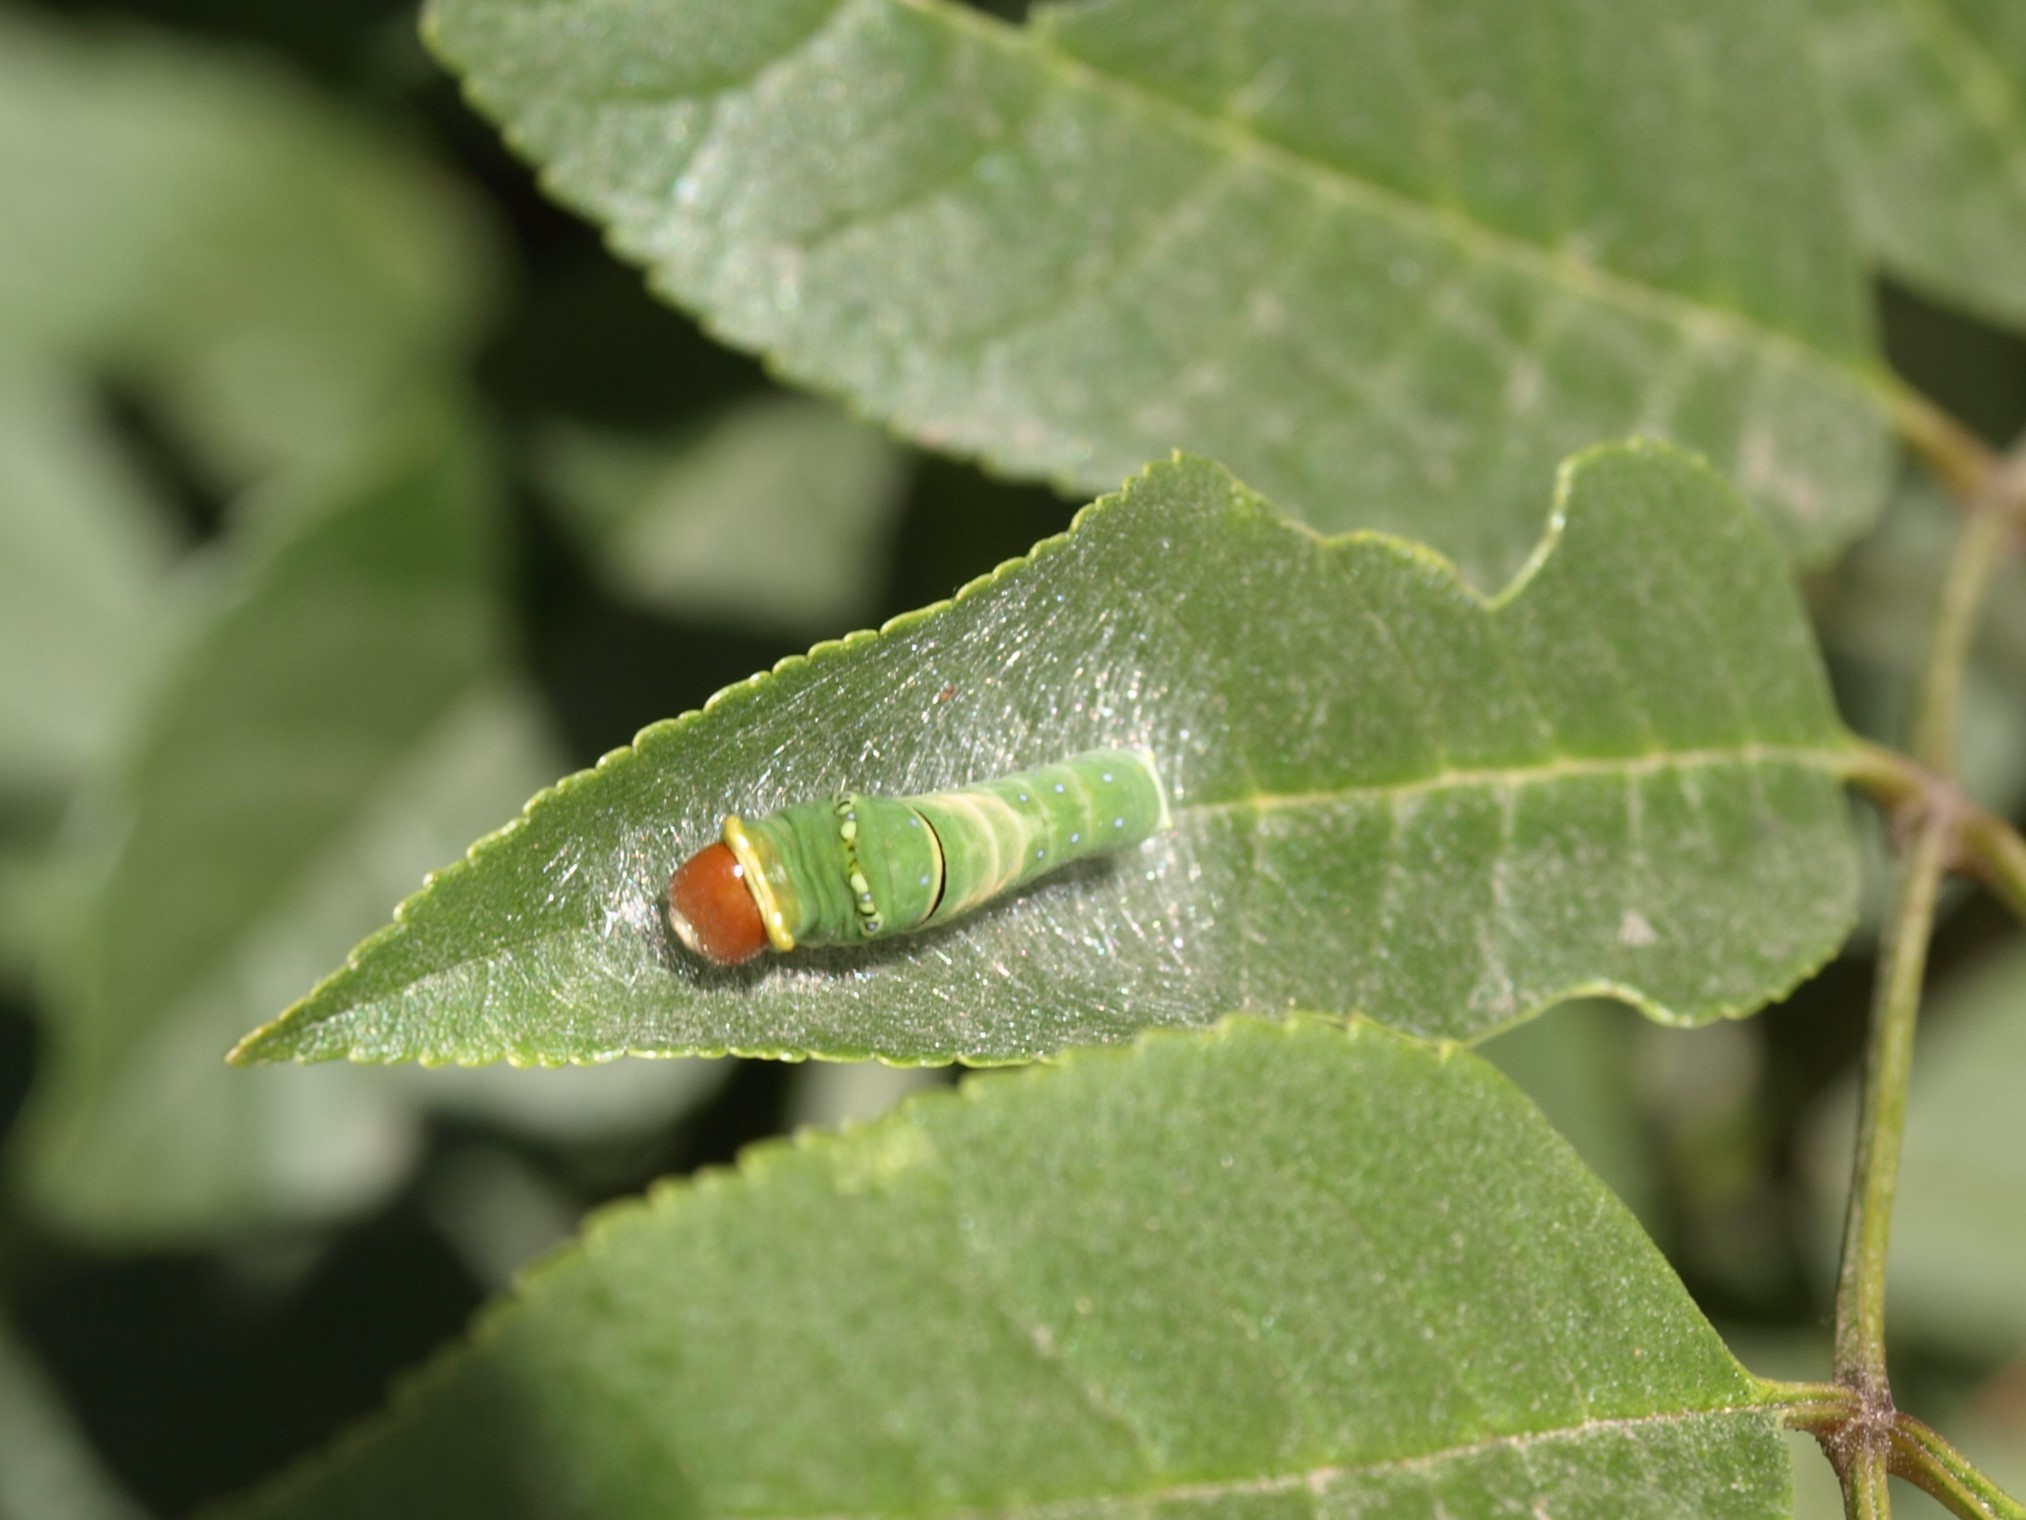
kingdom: Animalia
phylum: Arthropoda
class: Insecta
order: Lepidoptera
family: Papilionidae
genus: Papilio
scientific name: Papilio multicaudata
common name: Two-tailed tiger swallowtail
